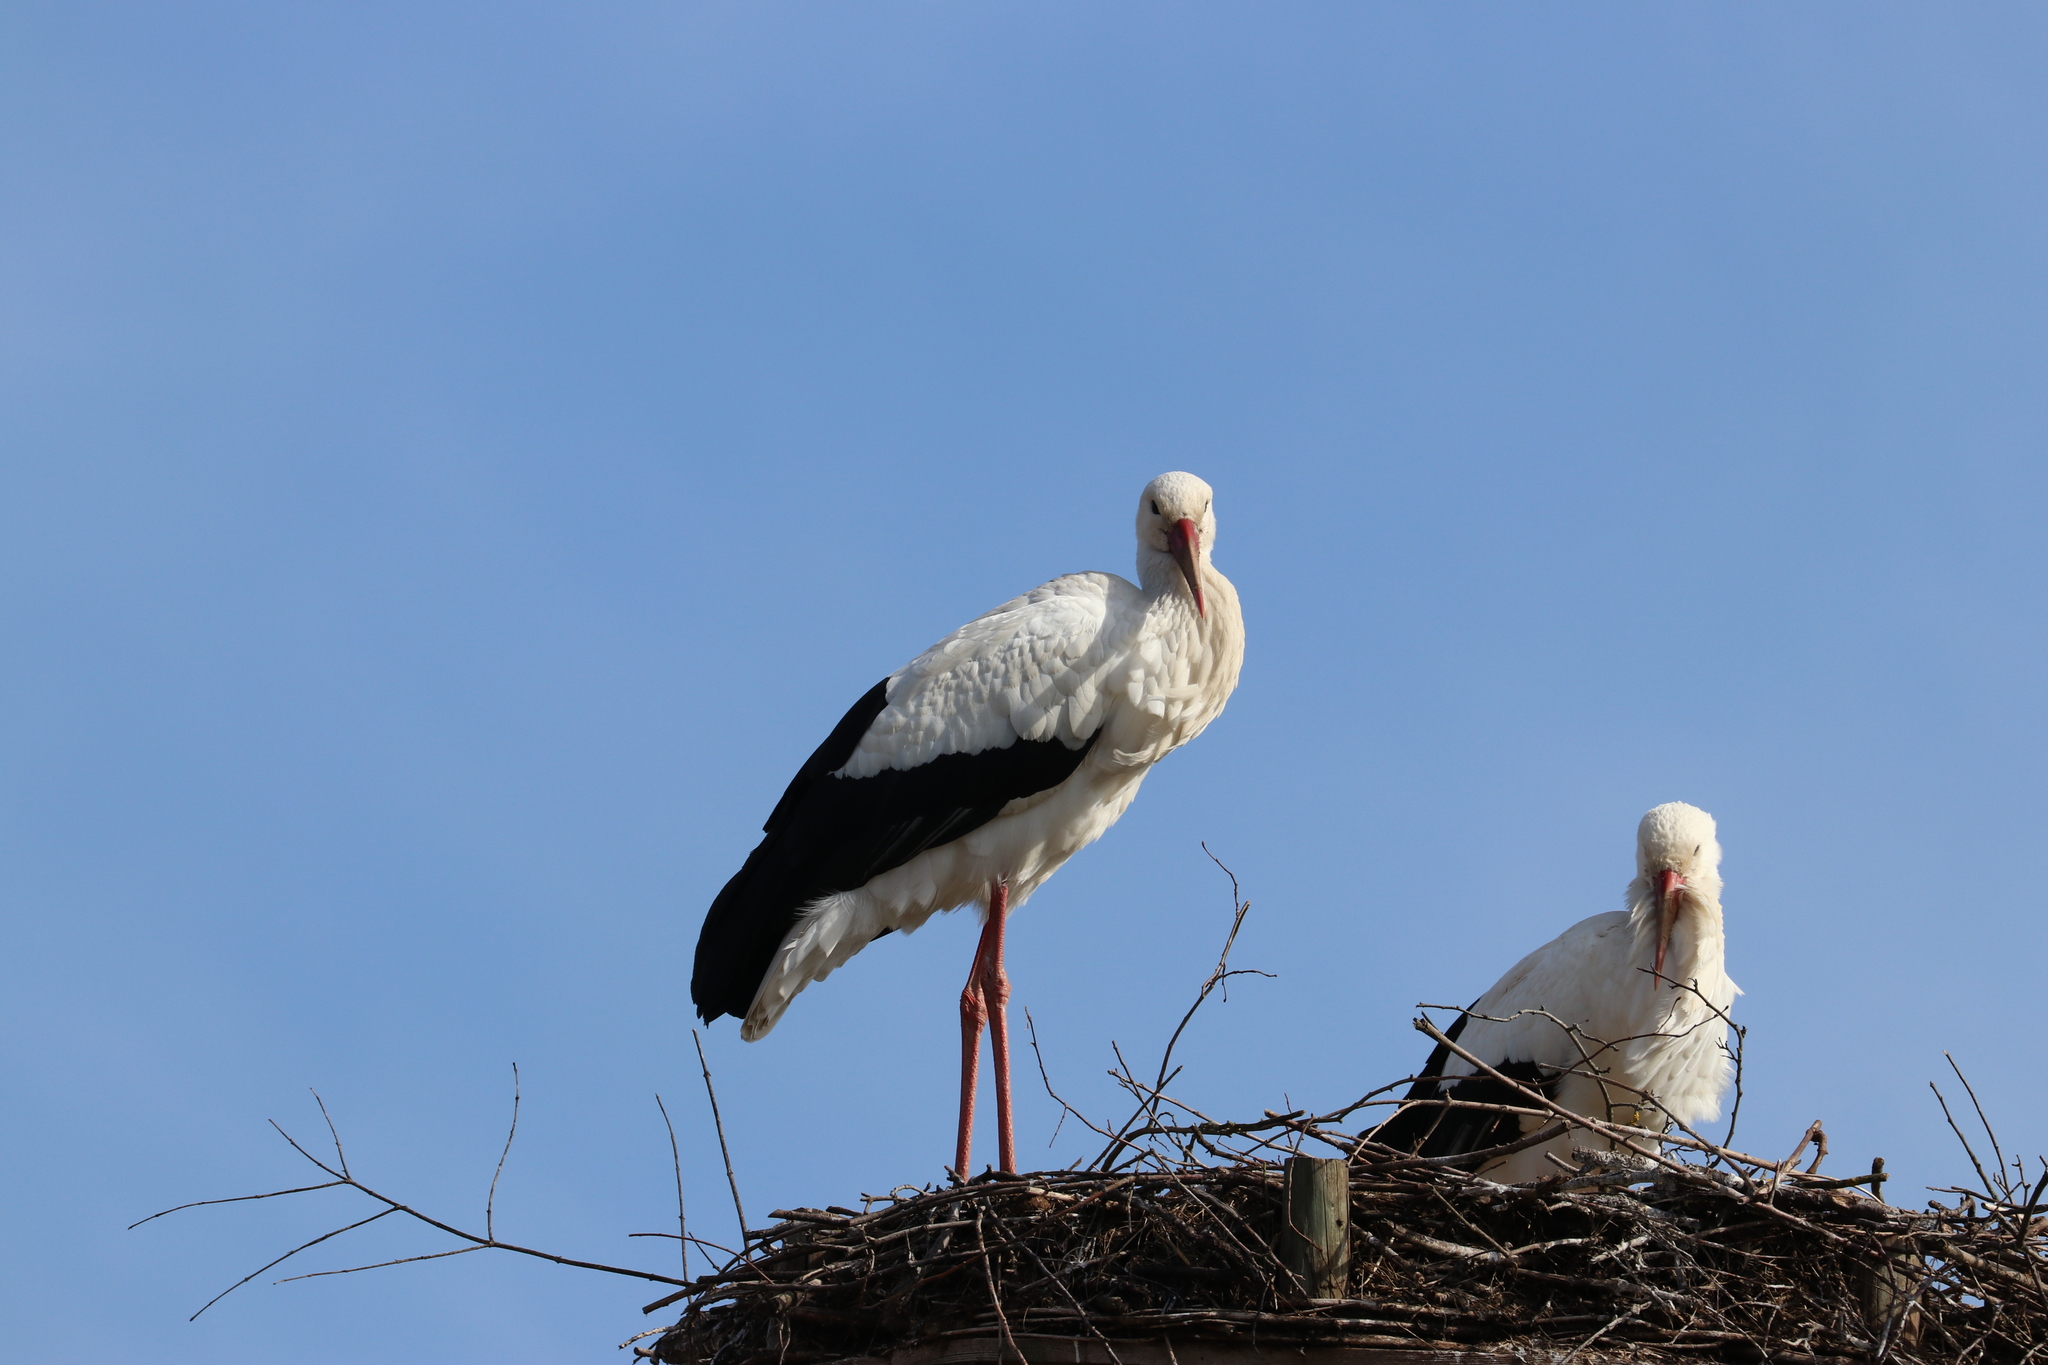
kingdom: Animalia
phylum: Chordata
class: Aves
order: Ciconiiformes
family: Ciconiidae
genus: Ciconia
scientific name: Ciconia ciconia
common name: White stork
